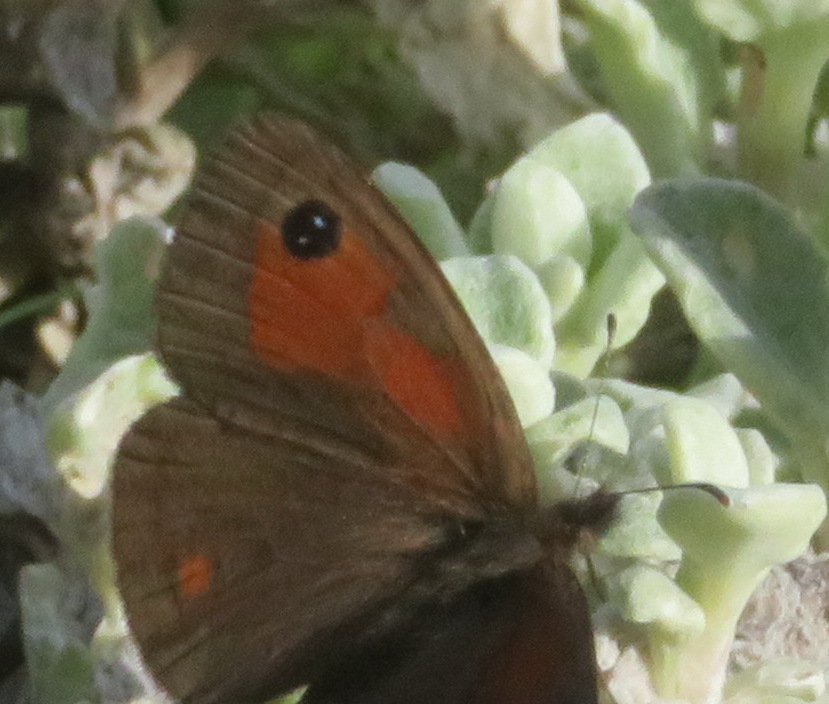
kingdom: Animalia
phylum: Arthropoda
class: Insecta
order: Lepidoptera
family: Nymphalidae
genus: Pseudonympha
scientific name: Pseudonympha magus
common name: Silver-bottom brown
